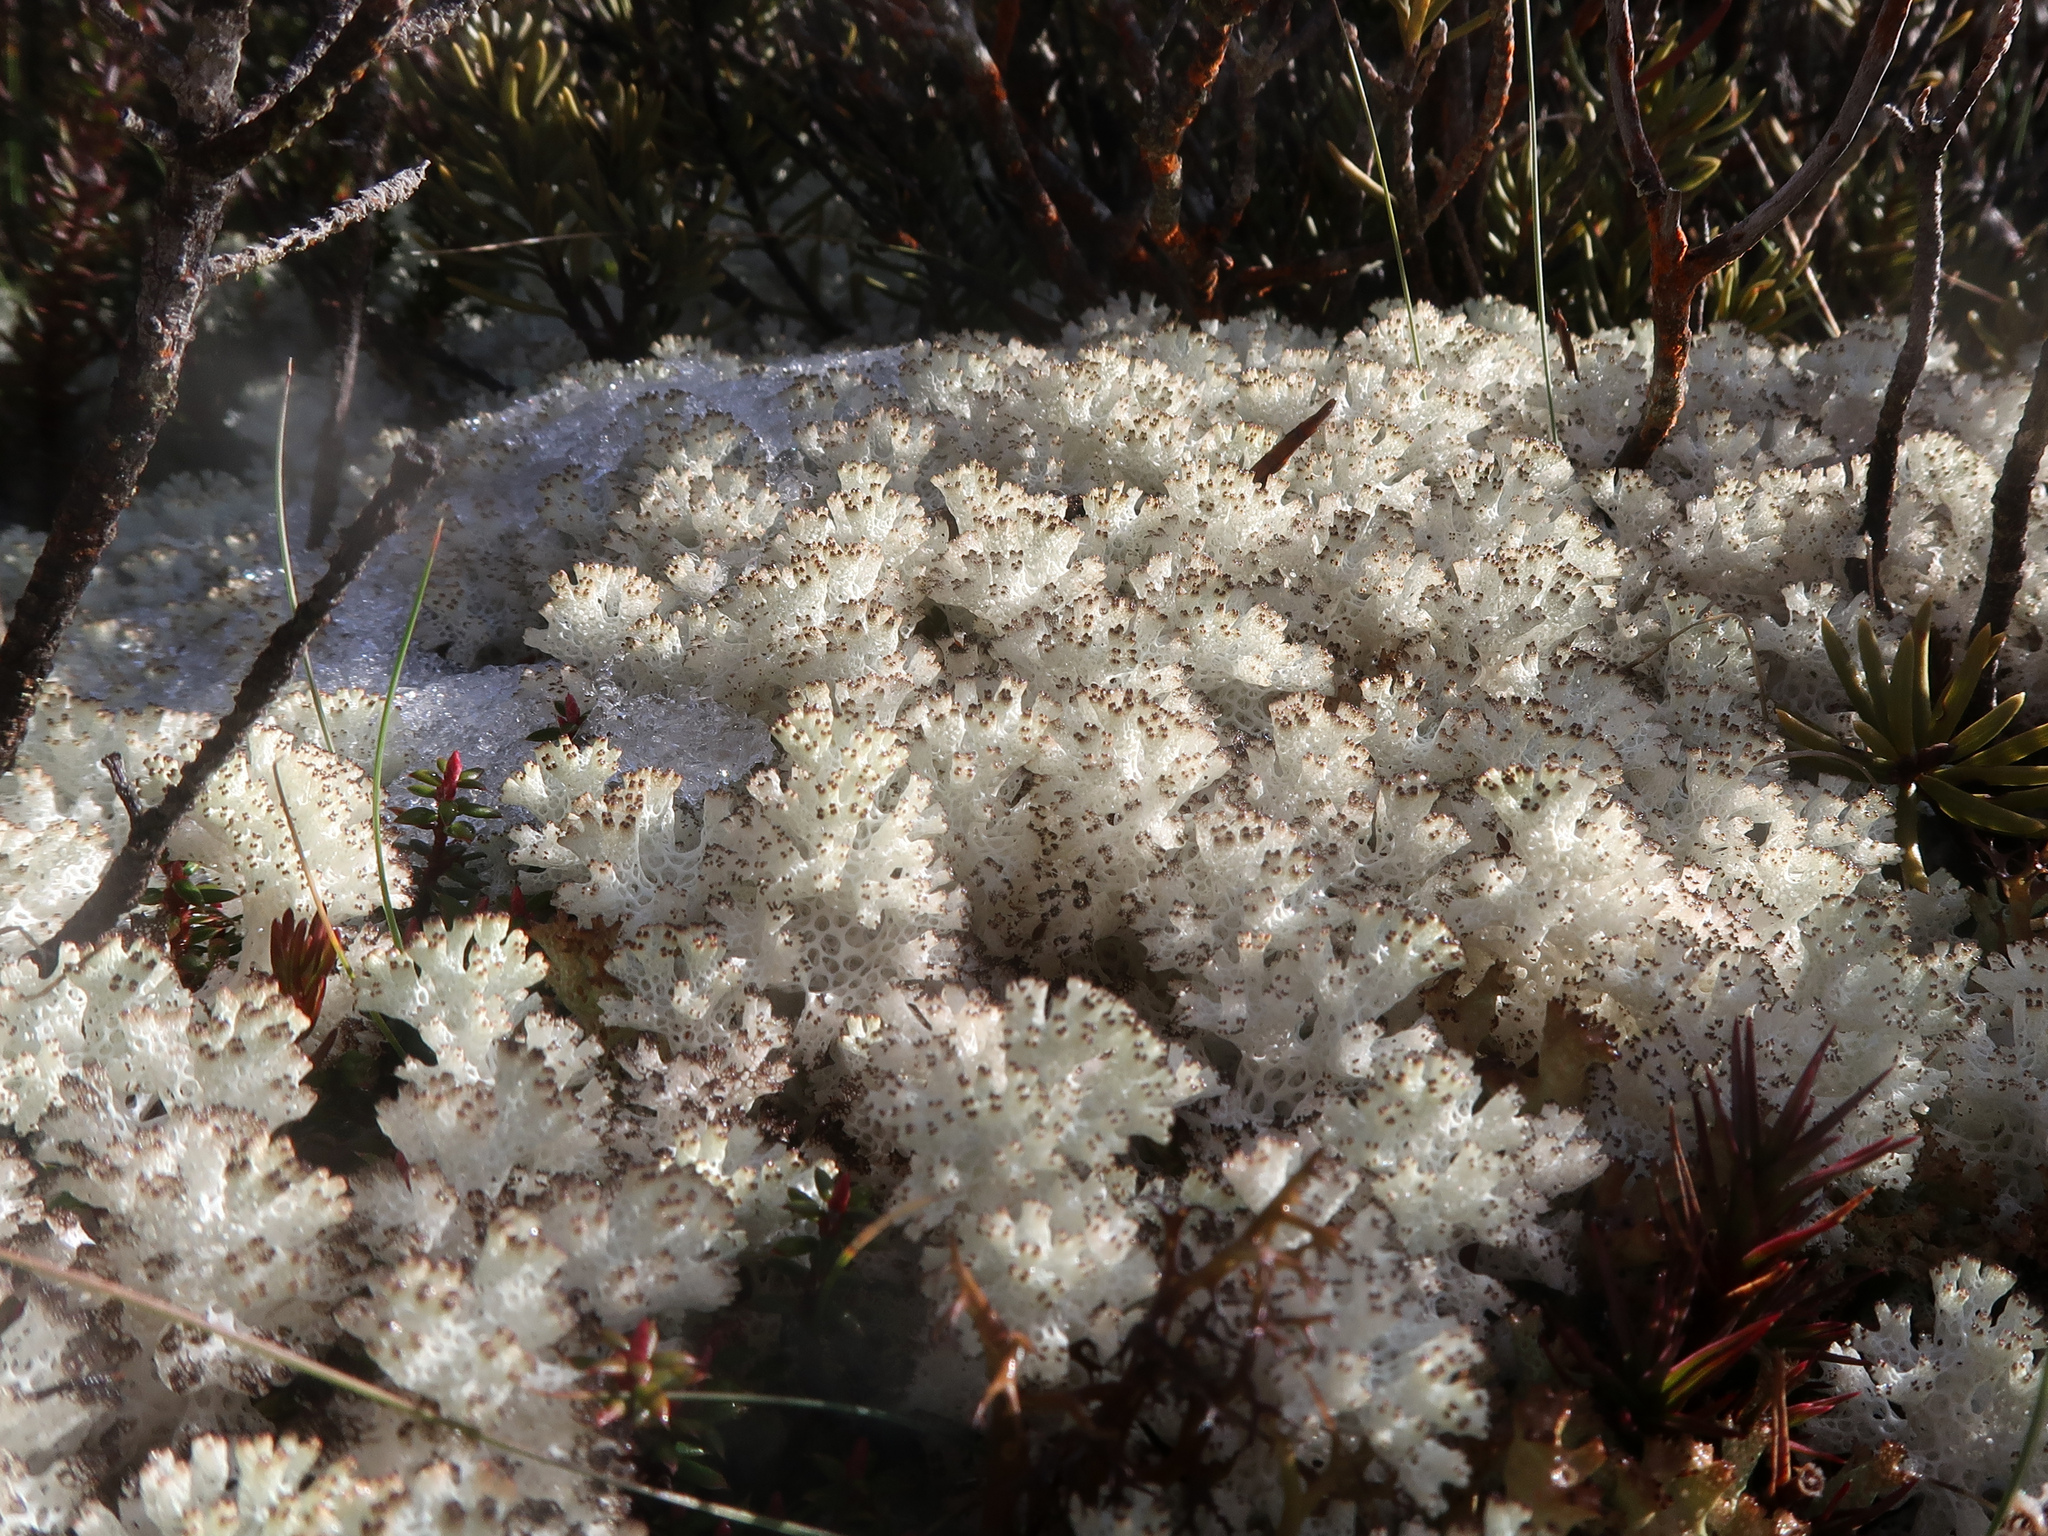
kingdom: Fungi
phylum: Ascomycota
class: Lecanoromycetes
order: Lecanorales
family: Cladoniaceae
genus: Pulchrocladia
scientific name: Pulchrocladia retipora
